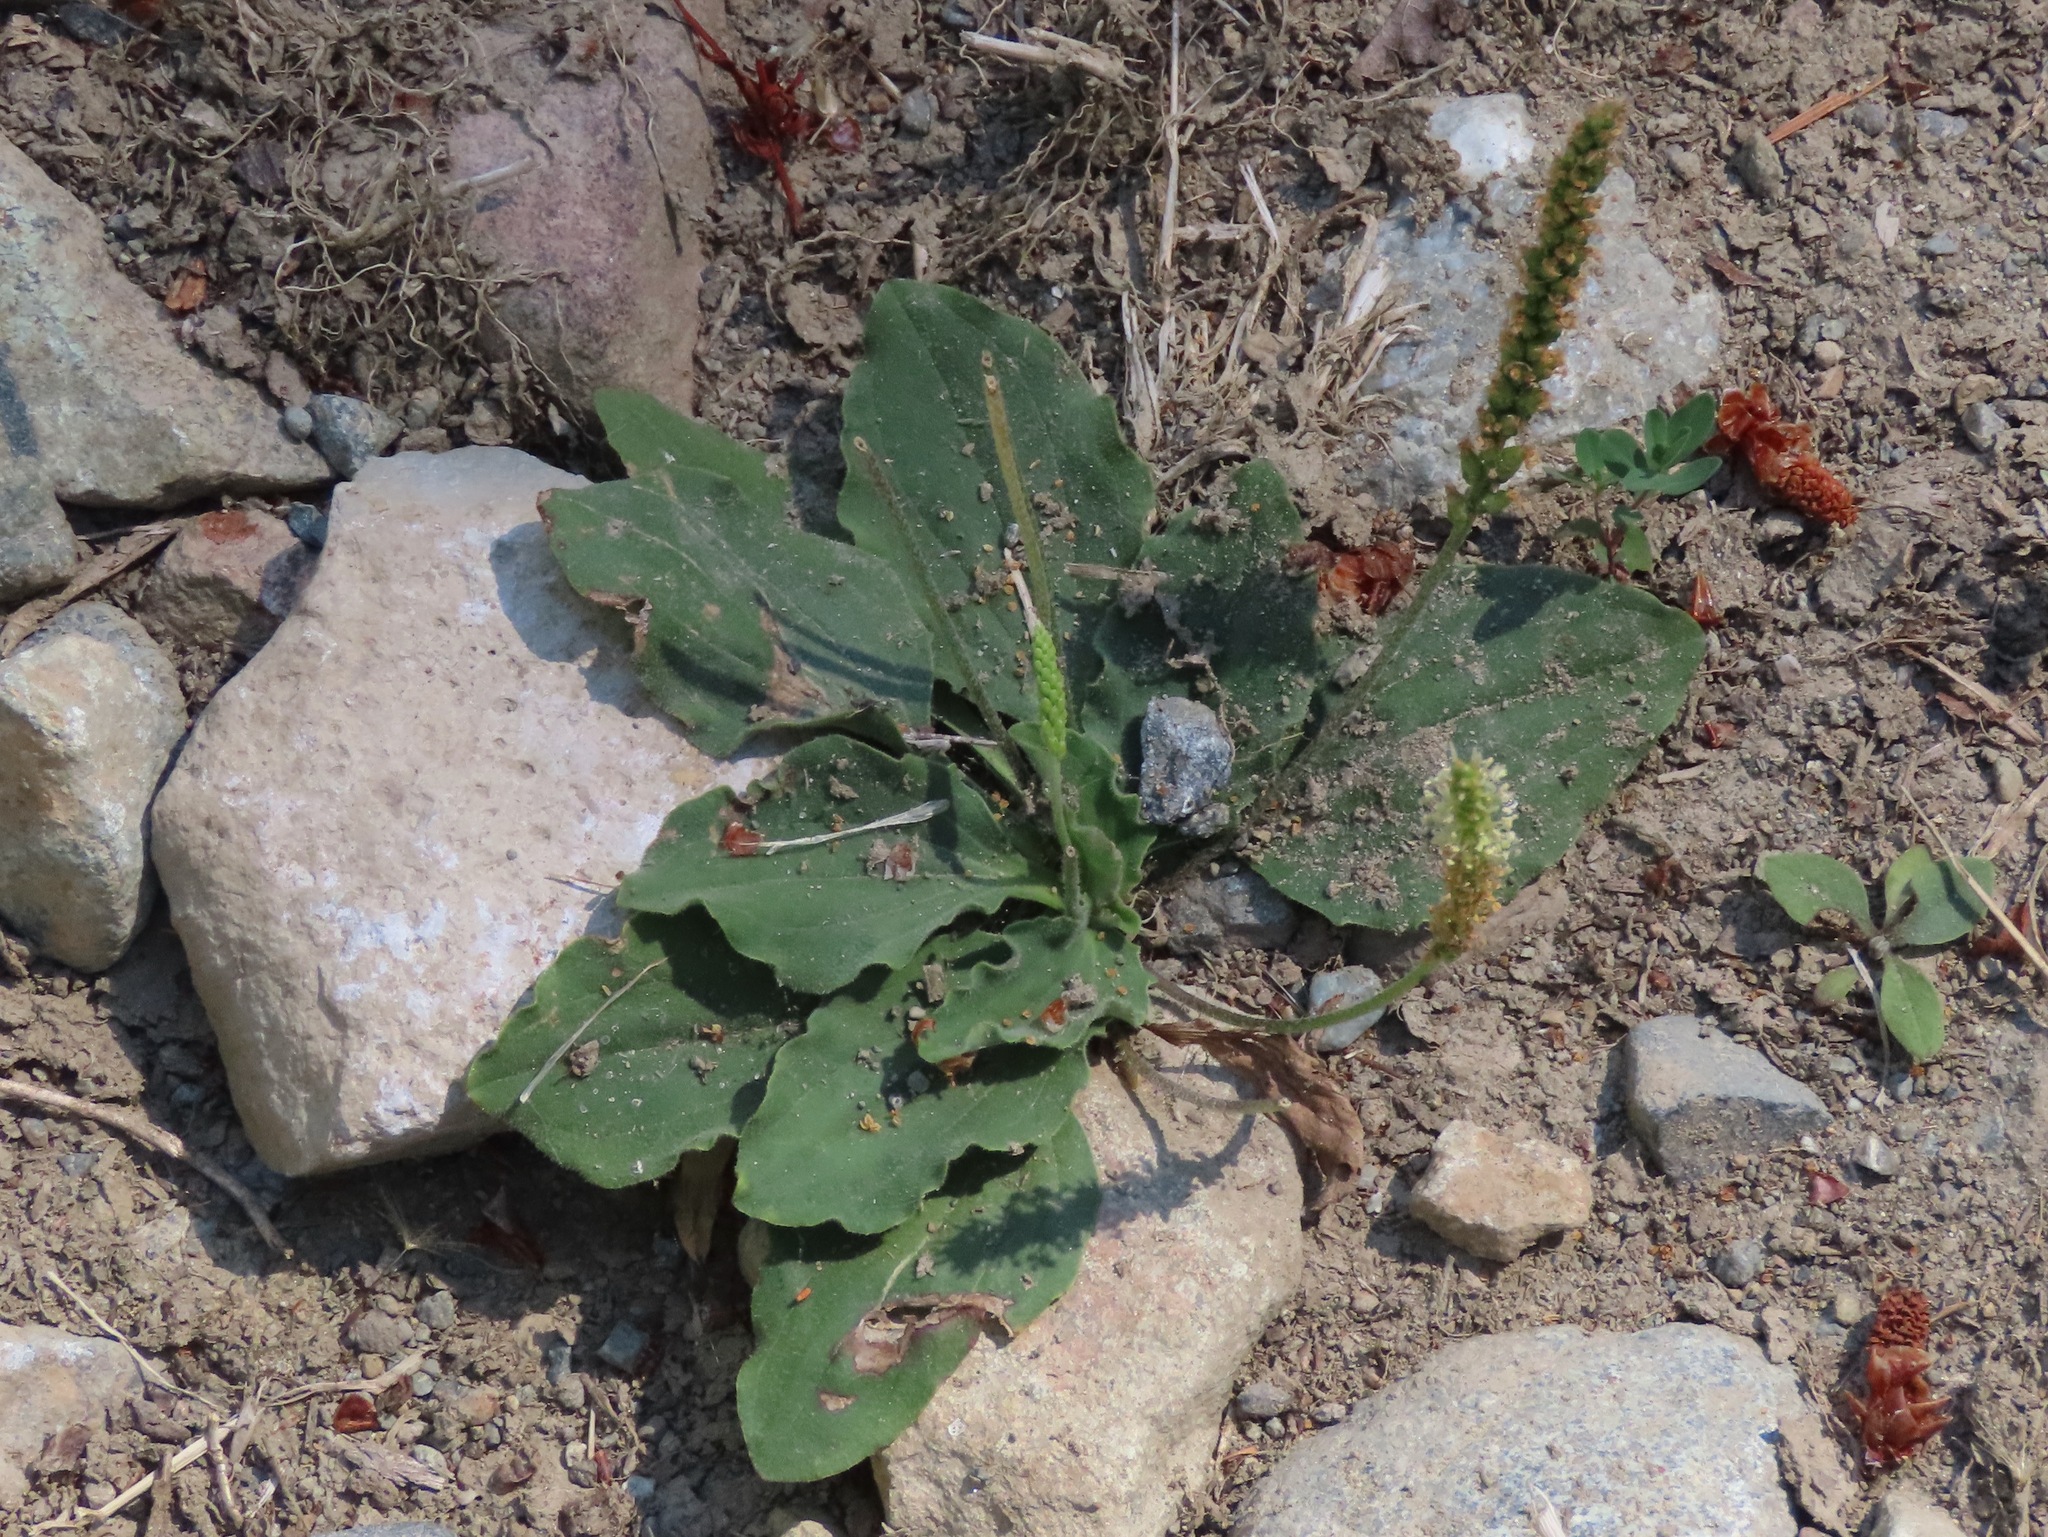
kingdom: Plantae
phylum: Tracheophyta
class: Magnoliopsida
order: Lamiales
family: Plantaginaceae
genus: Plantago
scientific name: Plantago major
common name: Common plantain
